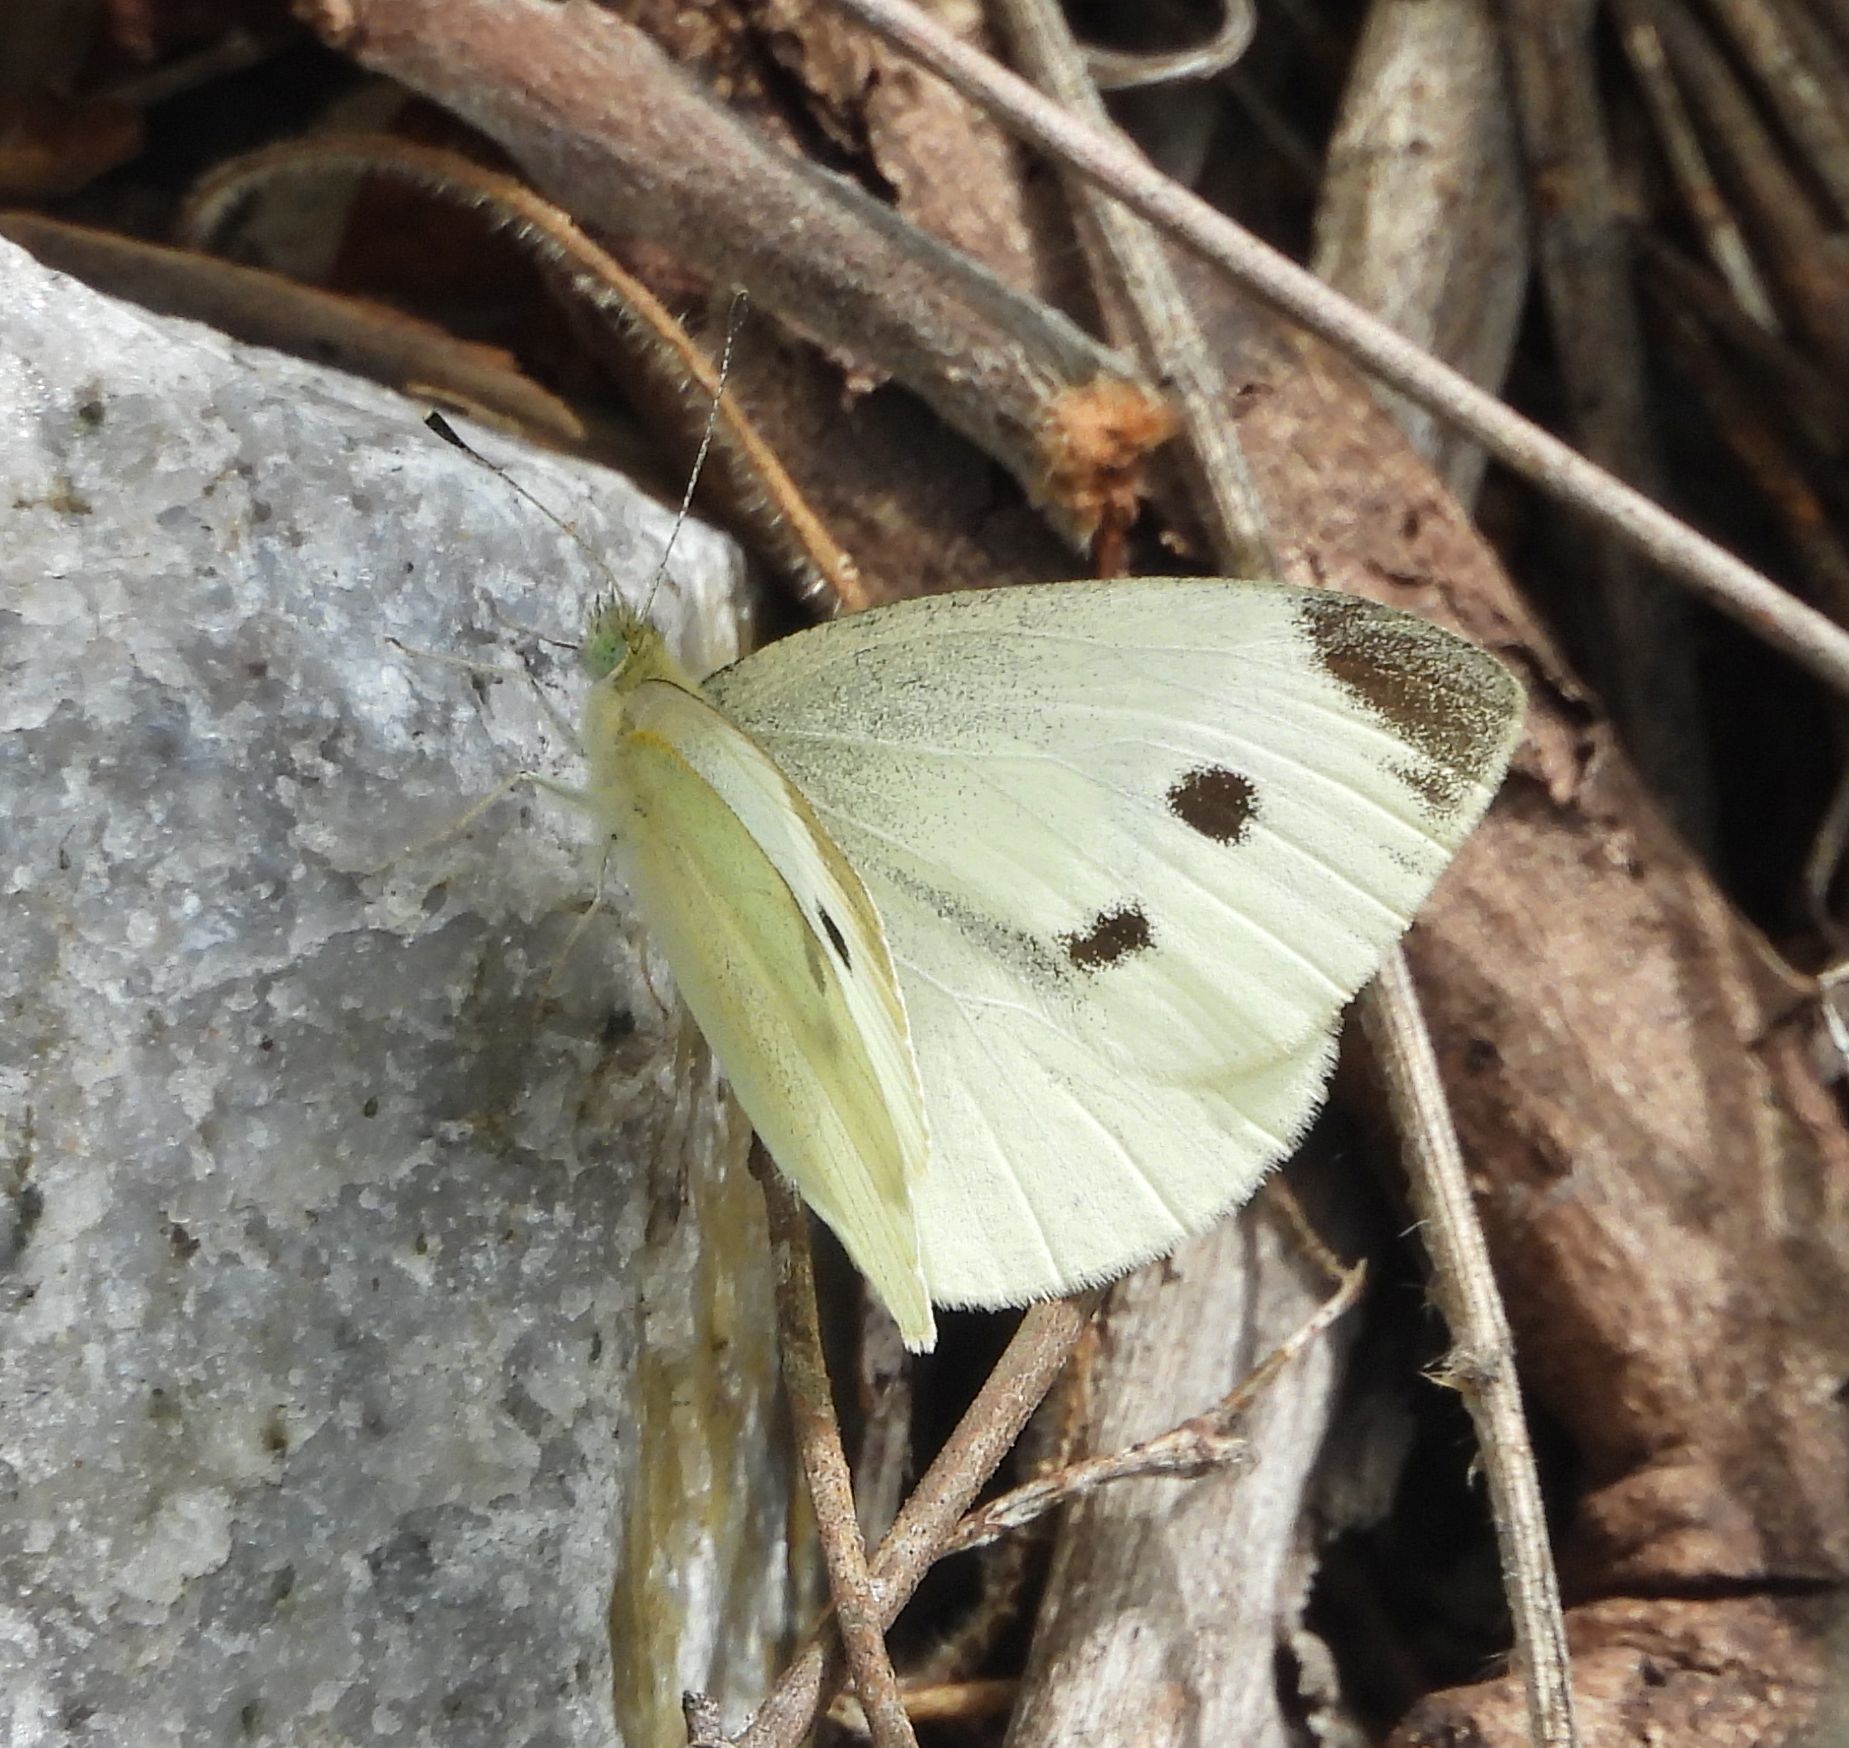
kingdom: Animalia
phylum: Arthropoda
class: Insecta
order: Lepidoptera
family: Pieridae
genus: Pieris
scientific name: Pieris rapae
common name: Small white
